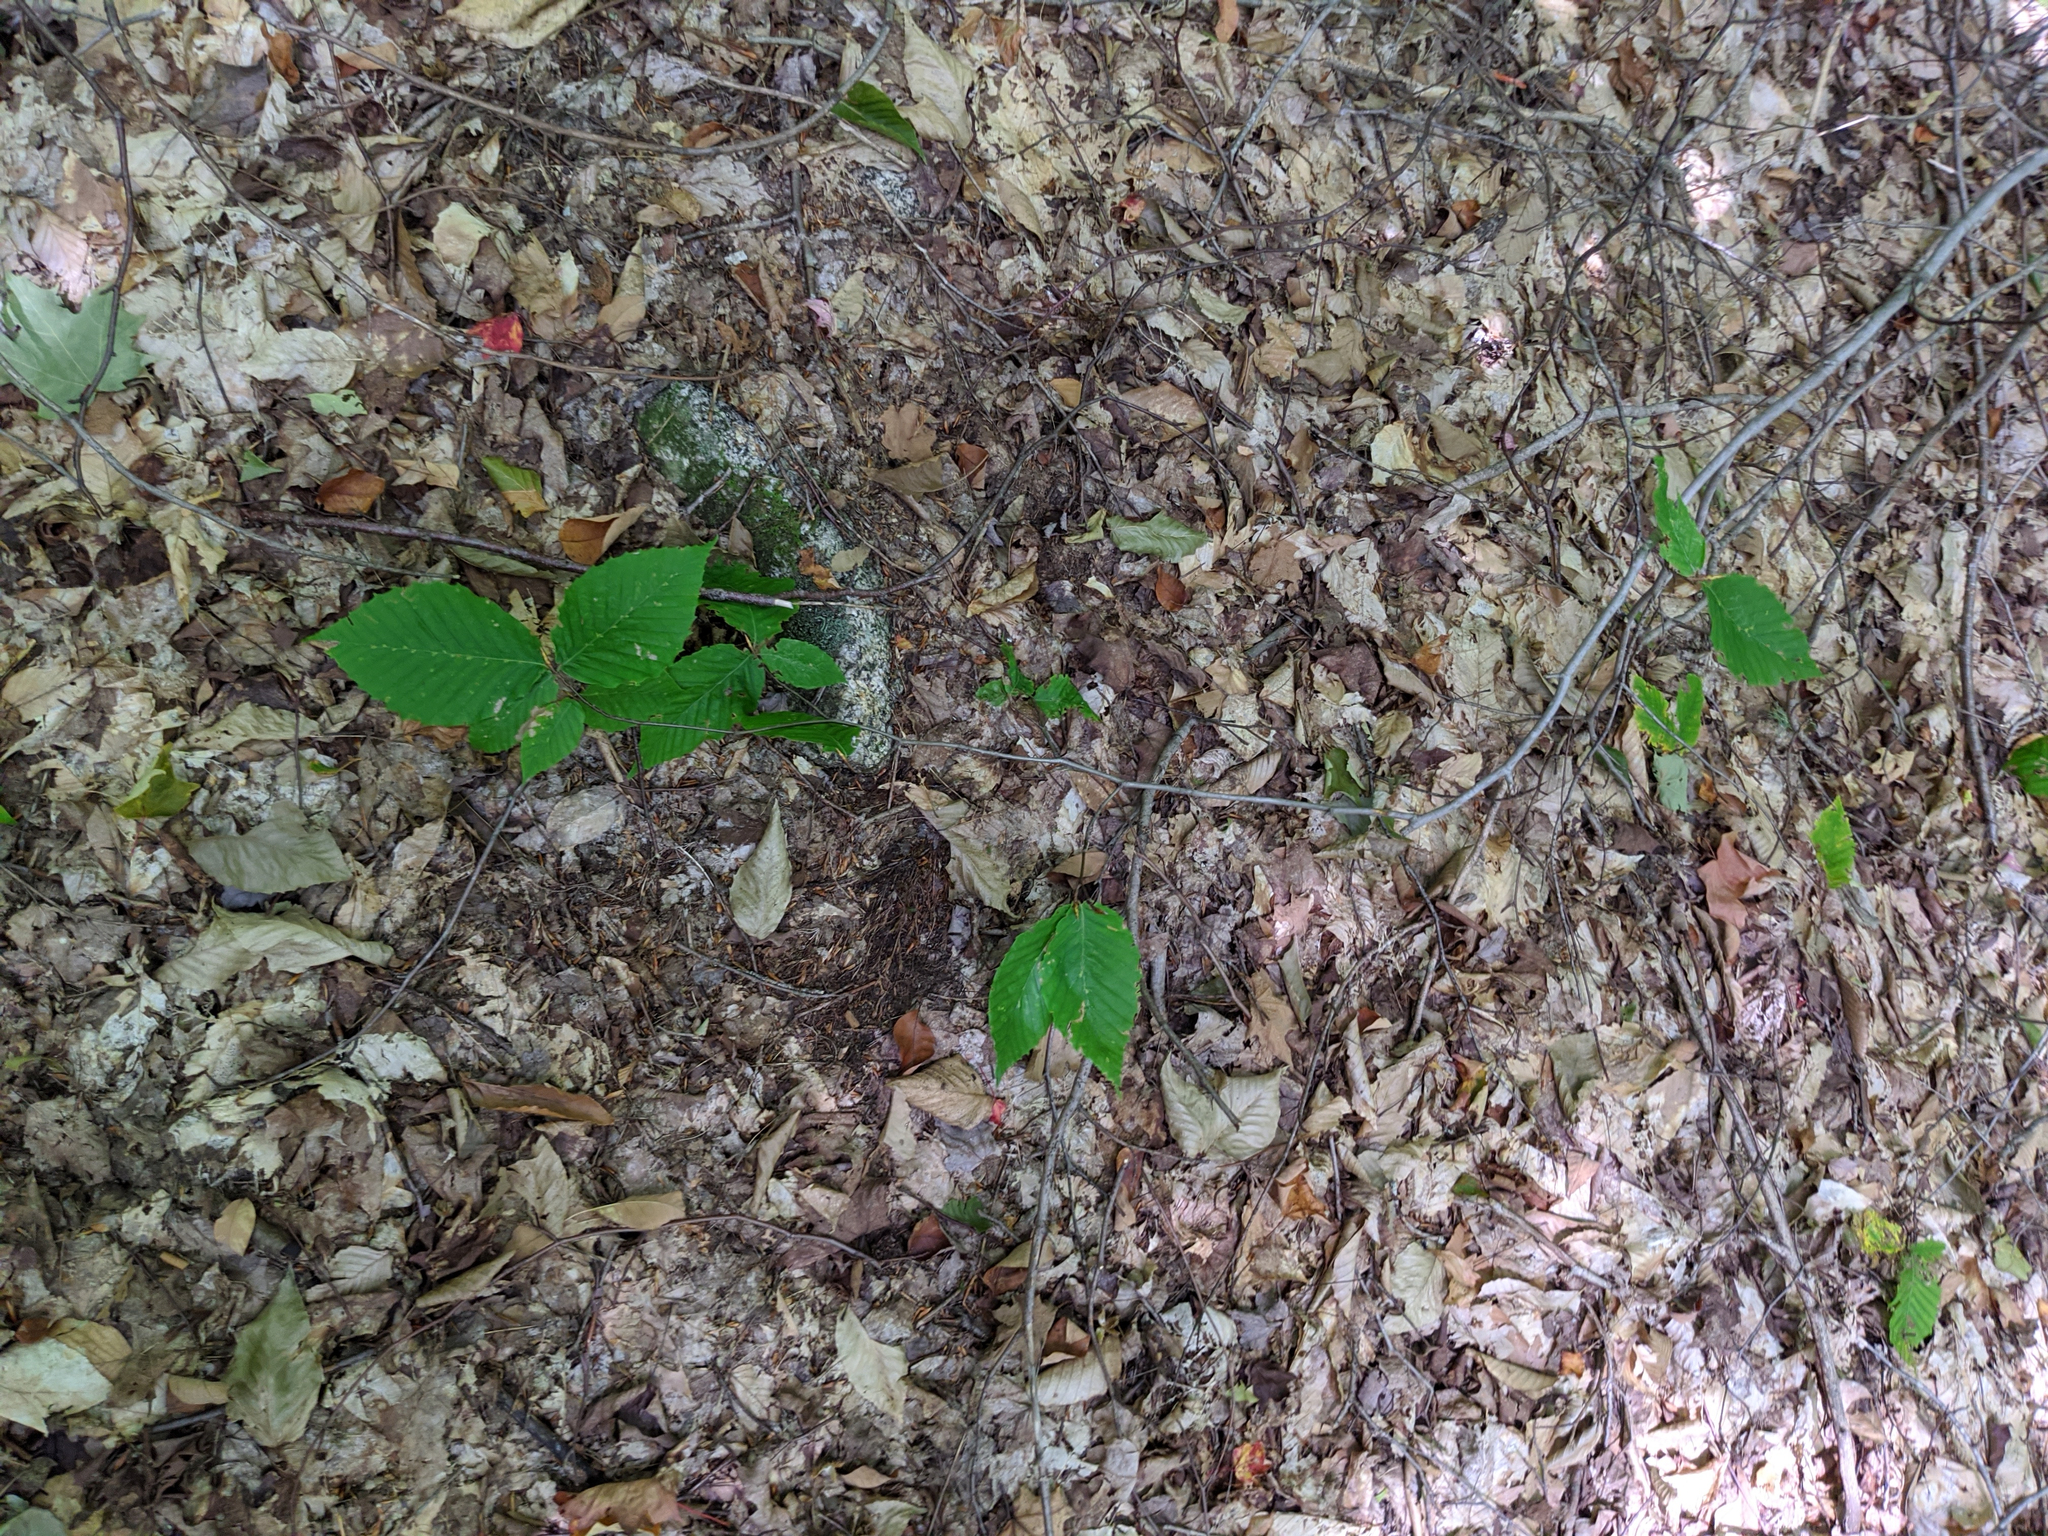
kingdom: Plantae
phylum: Tracheophyta
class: Magnoliopsida
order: Fagales
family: Fagaceae
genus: Fagus
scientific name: Fagus grandifolia
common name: American beech
